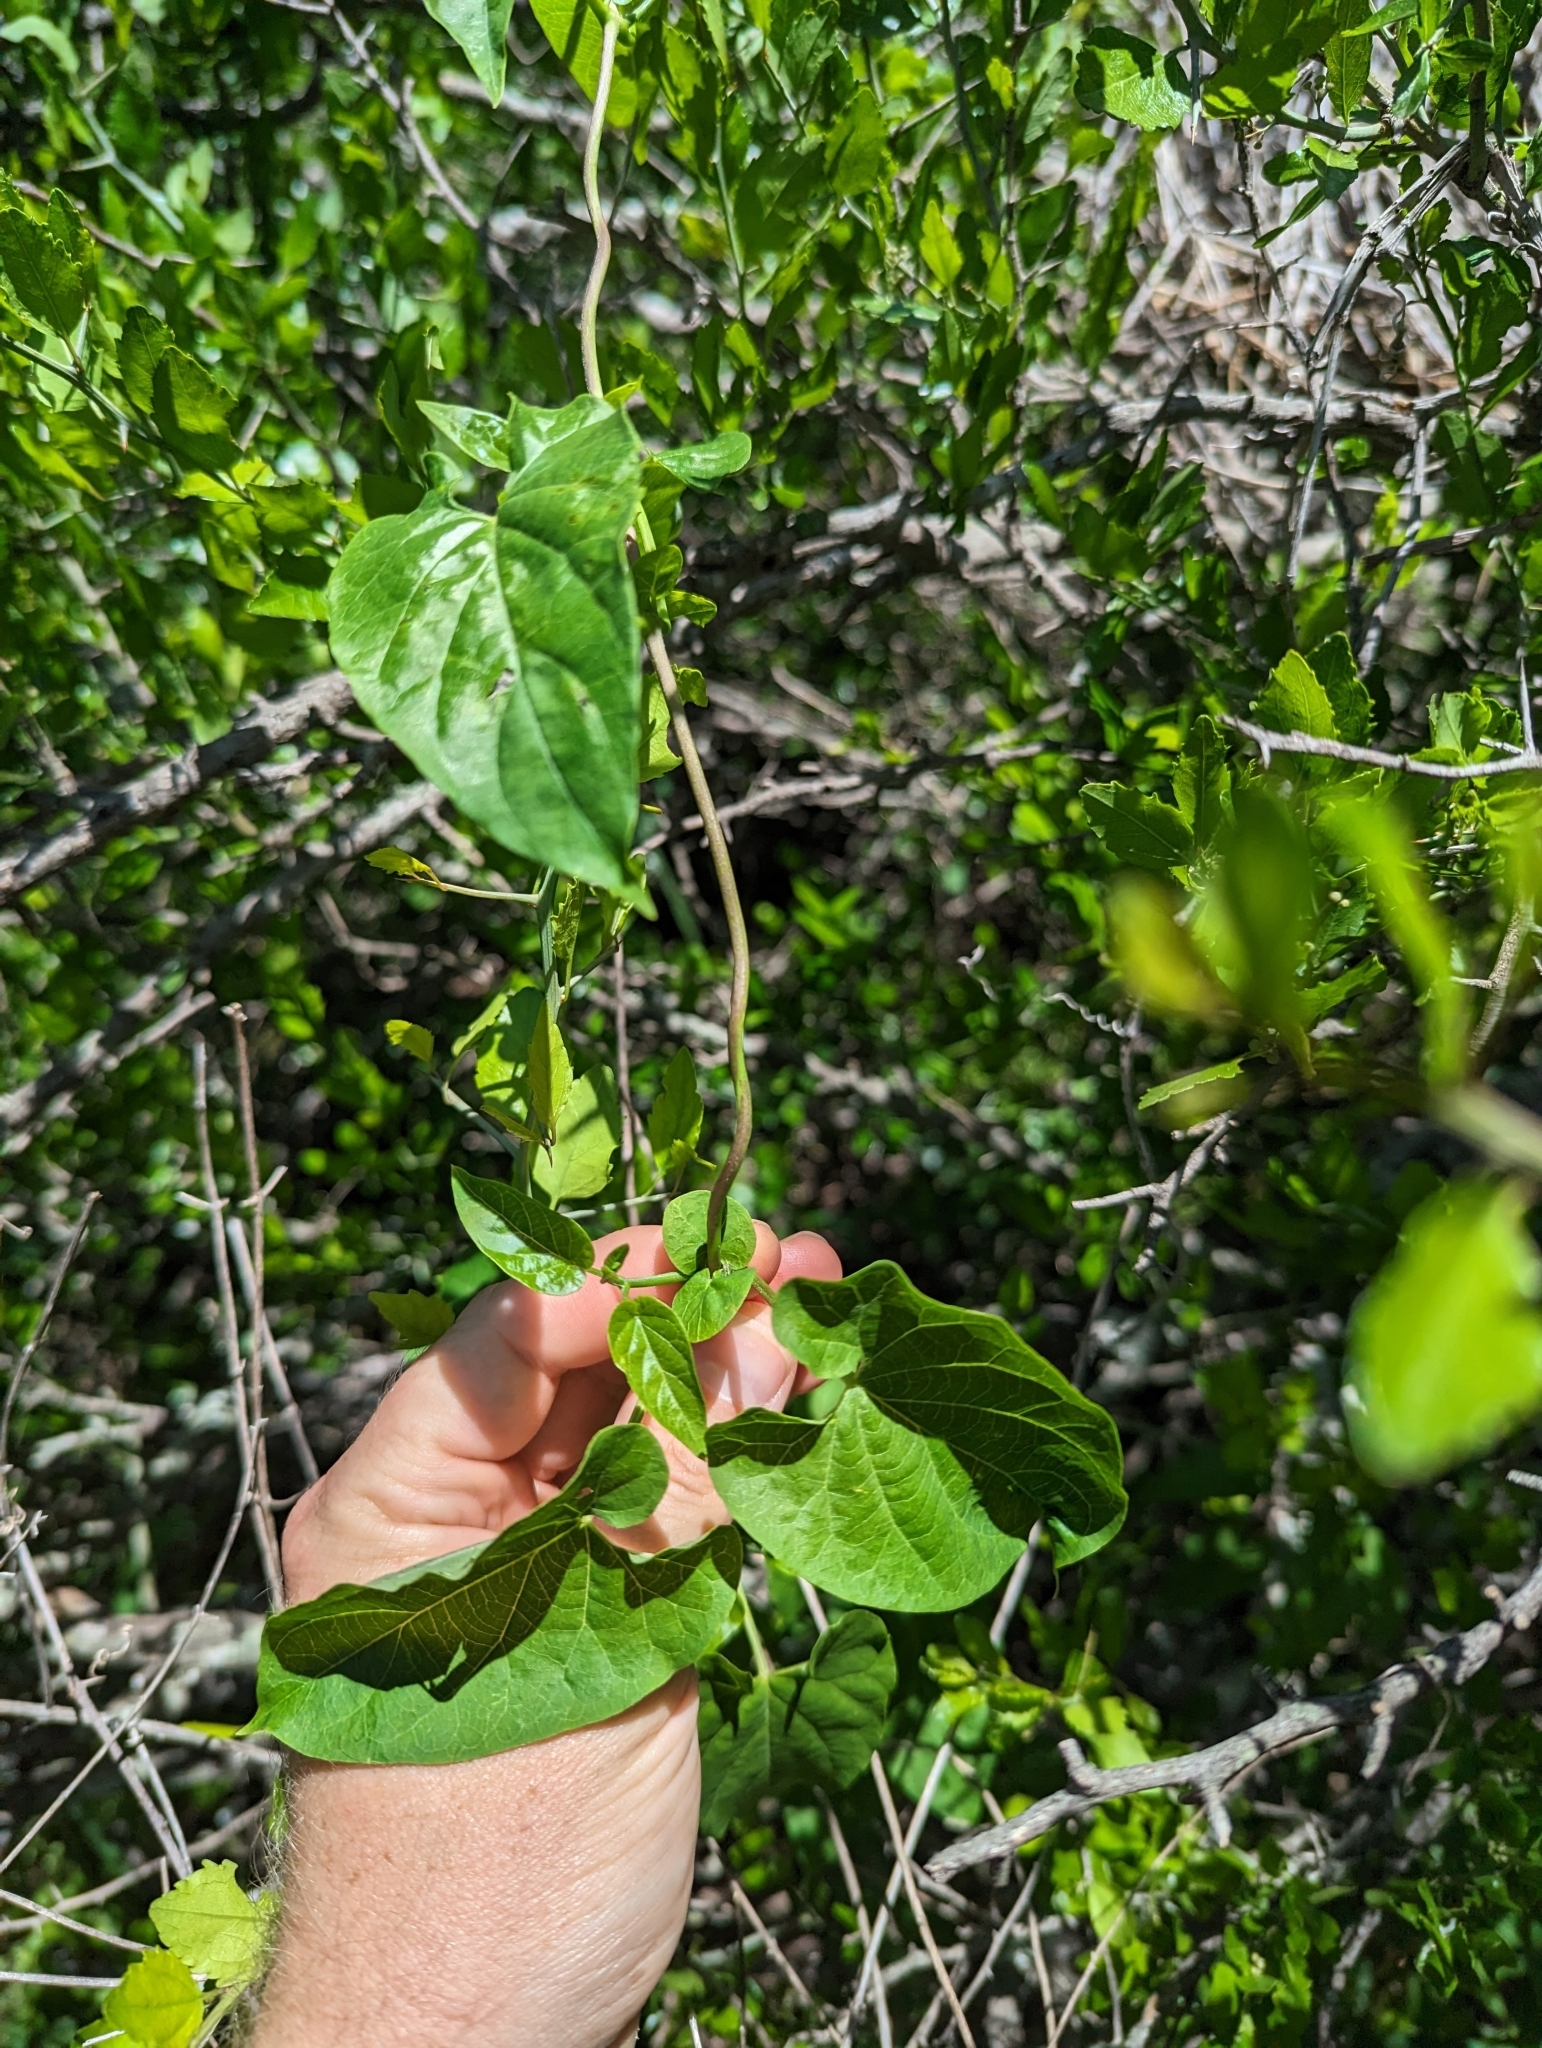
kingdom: Plantae
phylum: Tracheophyta
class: Magnoliopsida
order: Gentianales
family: Apocynaceae
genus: Cynanchum
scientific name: Cynanchum racemosum
